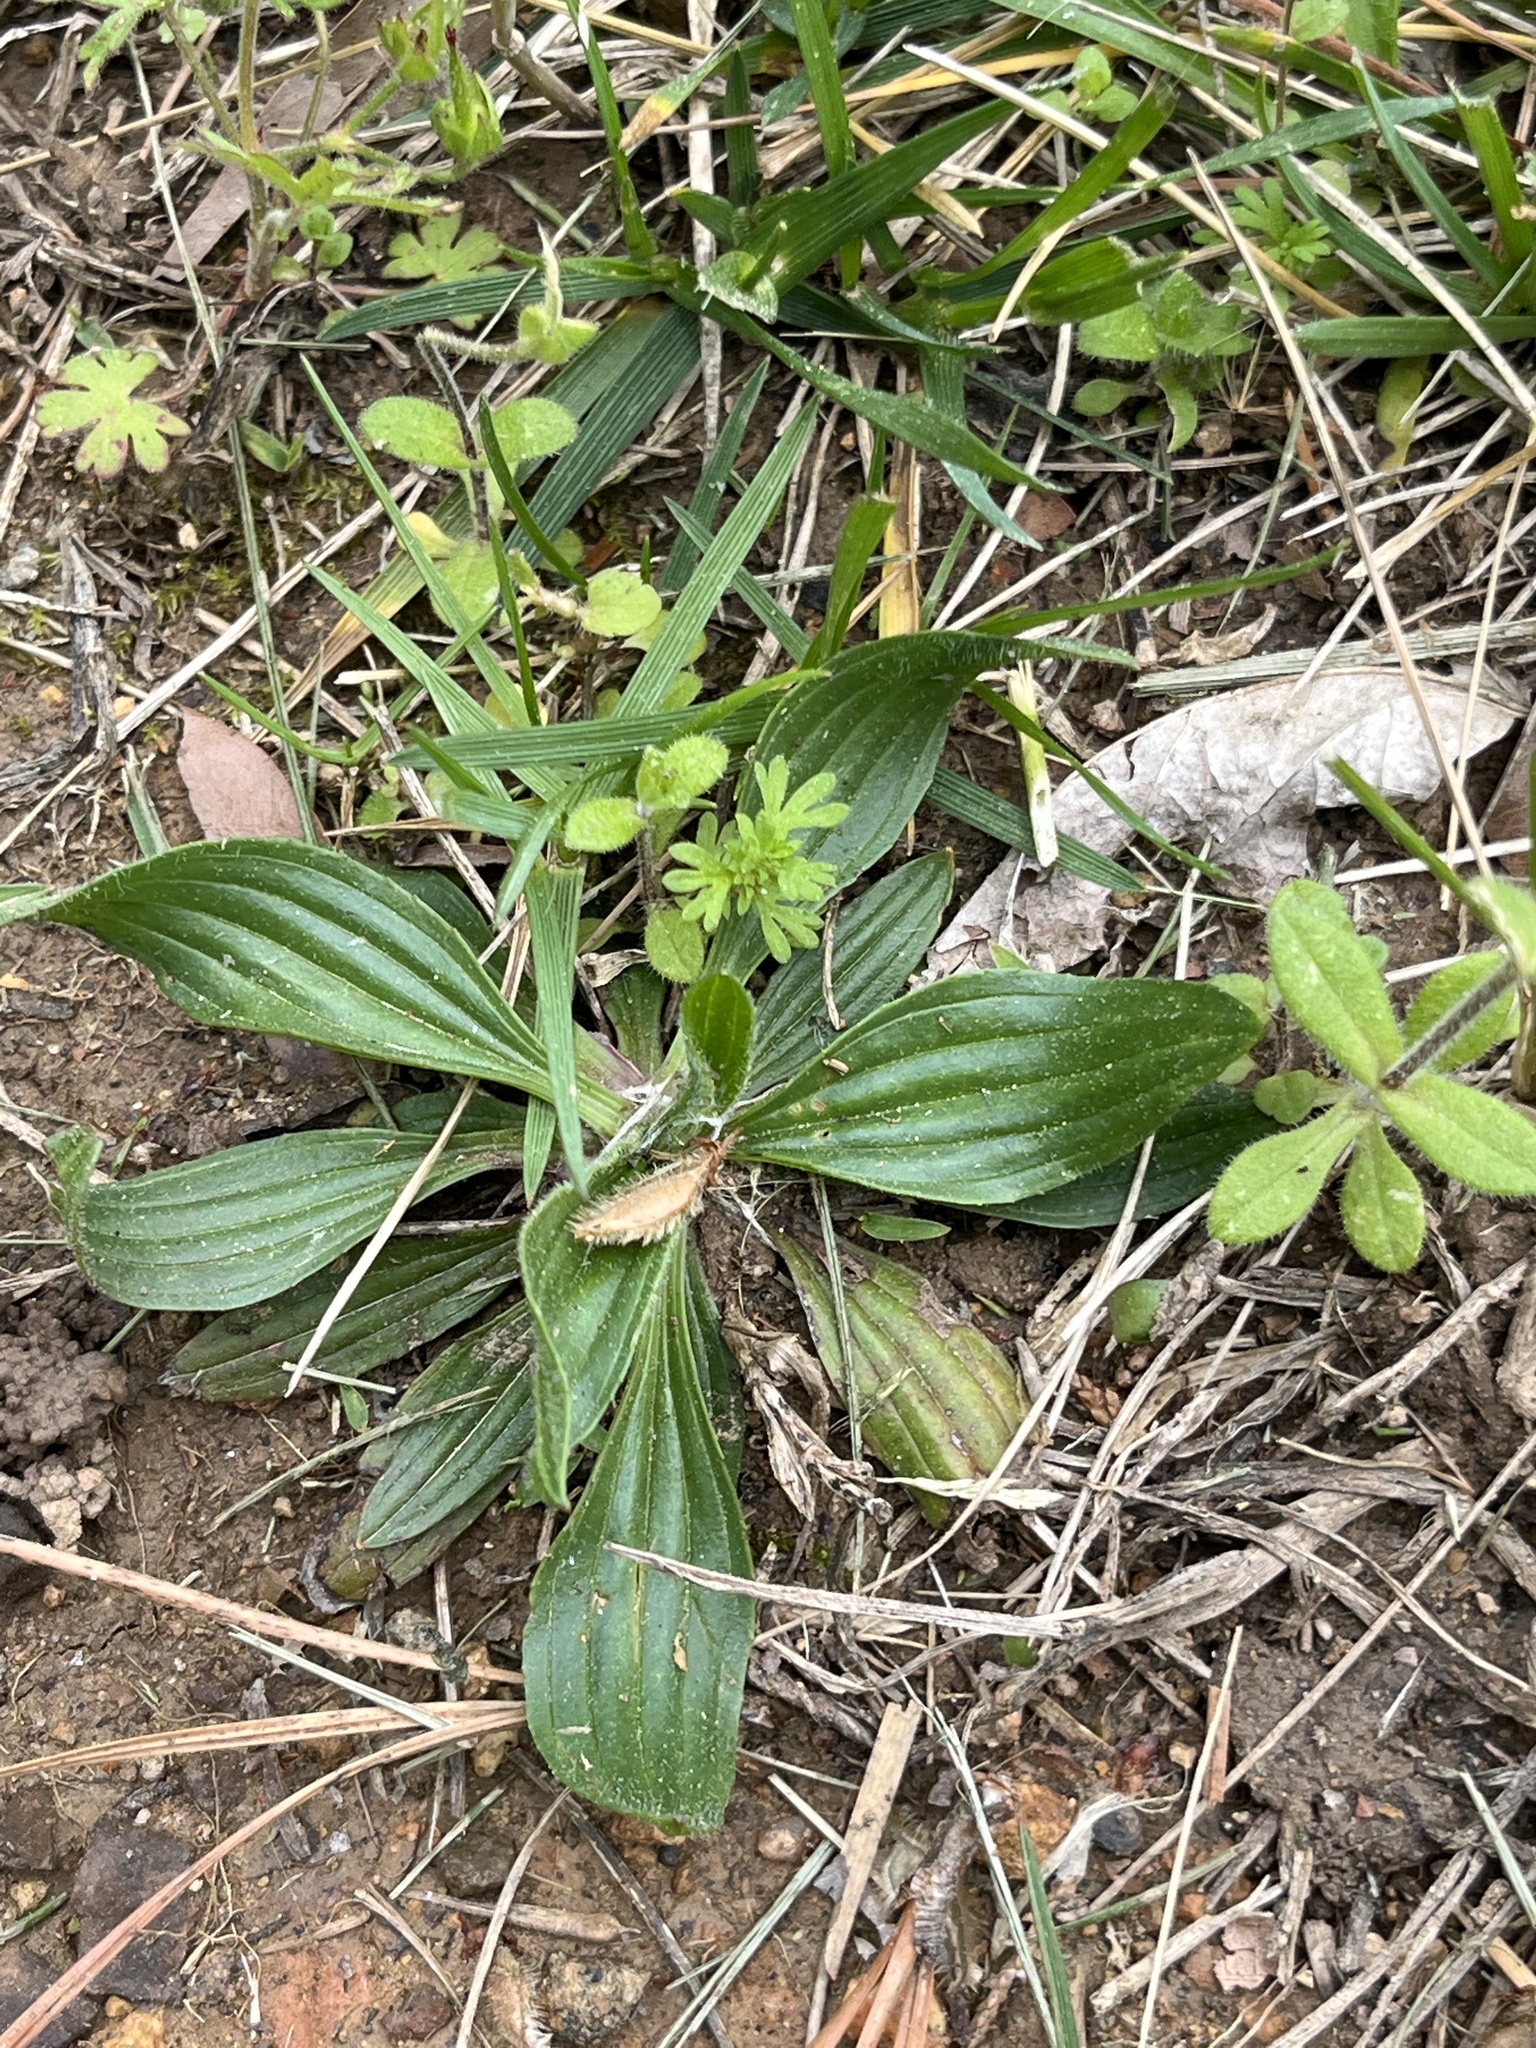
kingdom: Plantae
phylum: Tracheophyta
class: Magnoliopsida
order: Lamiales
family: Plantaginaceae
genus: Plantago
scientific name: Plantago lanceolata
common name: Ribwort plantain
